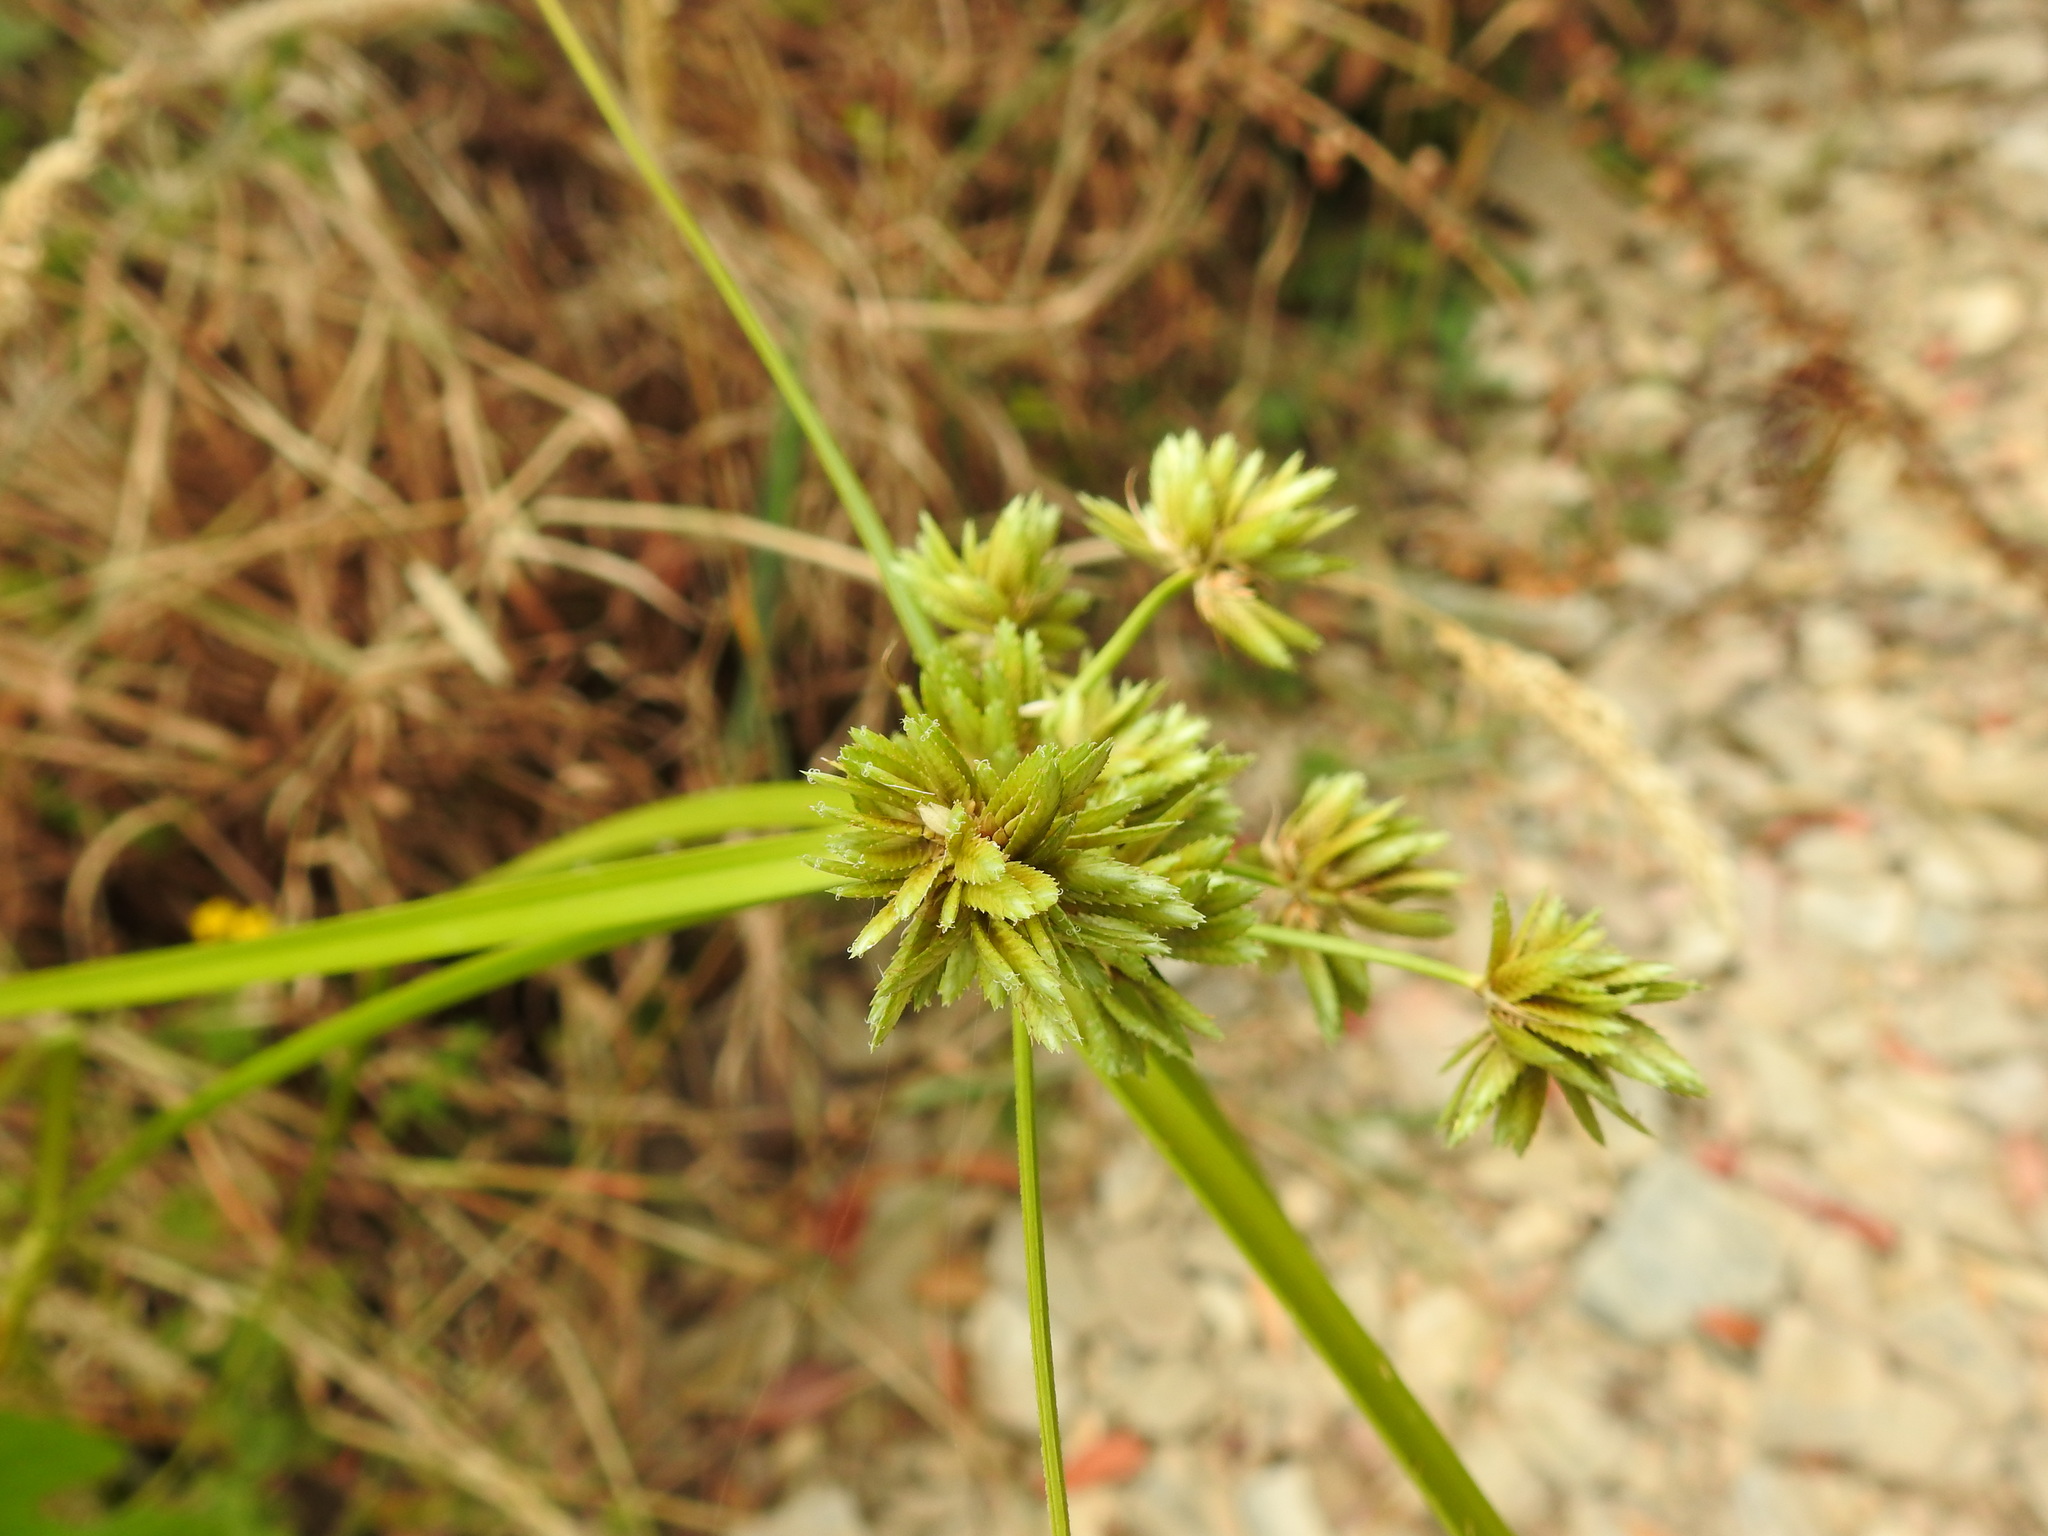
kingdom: Plantae
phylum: Tracheophyta
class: Liliopsida
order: Poales
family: Cyperaceae
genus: Cyperus
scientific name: Cyperus eragrostis
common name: Tall flatsedge
